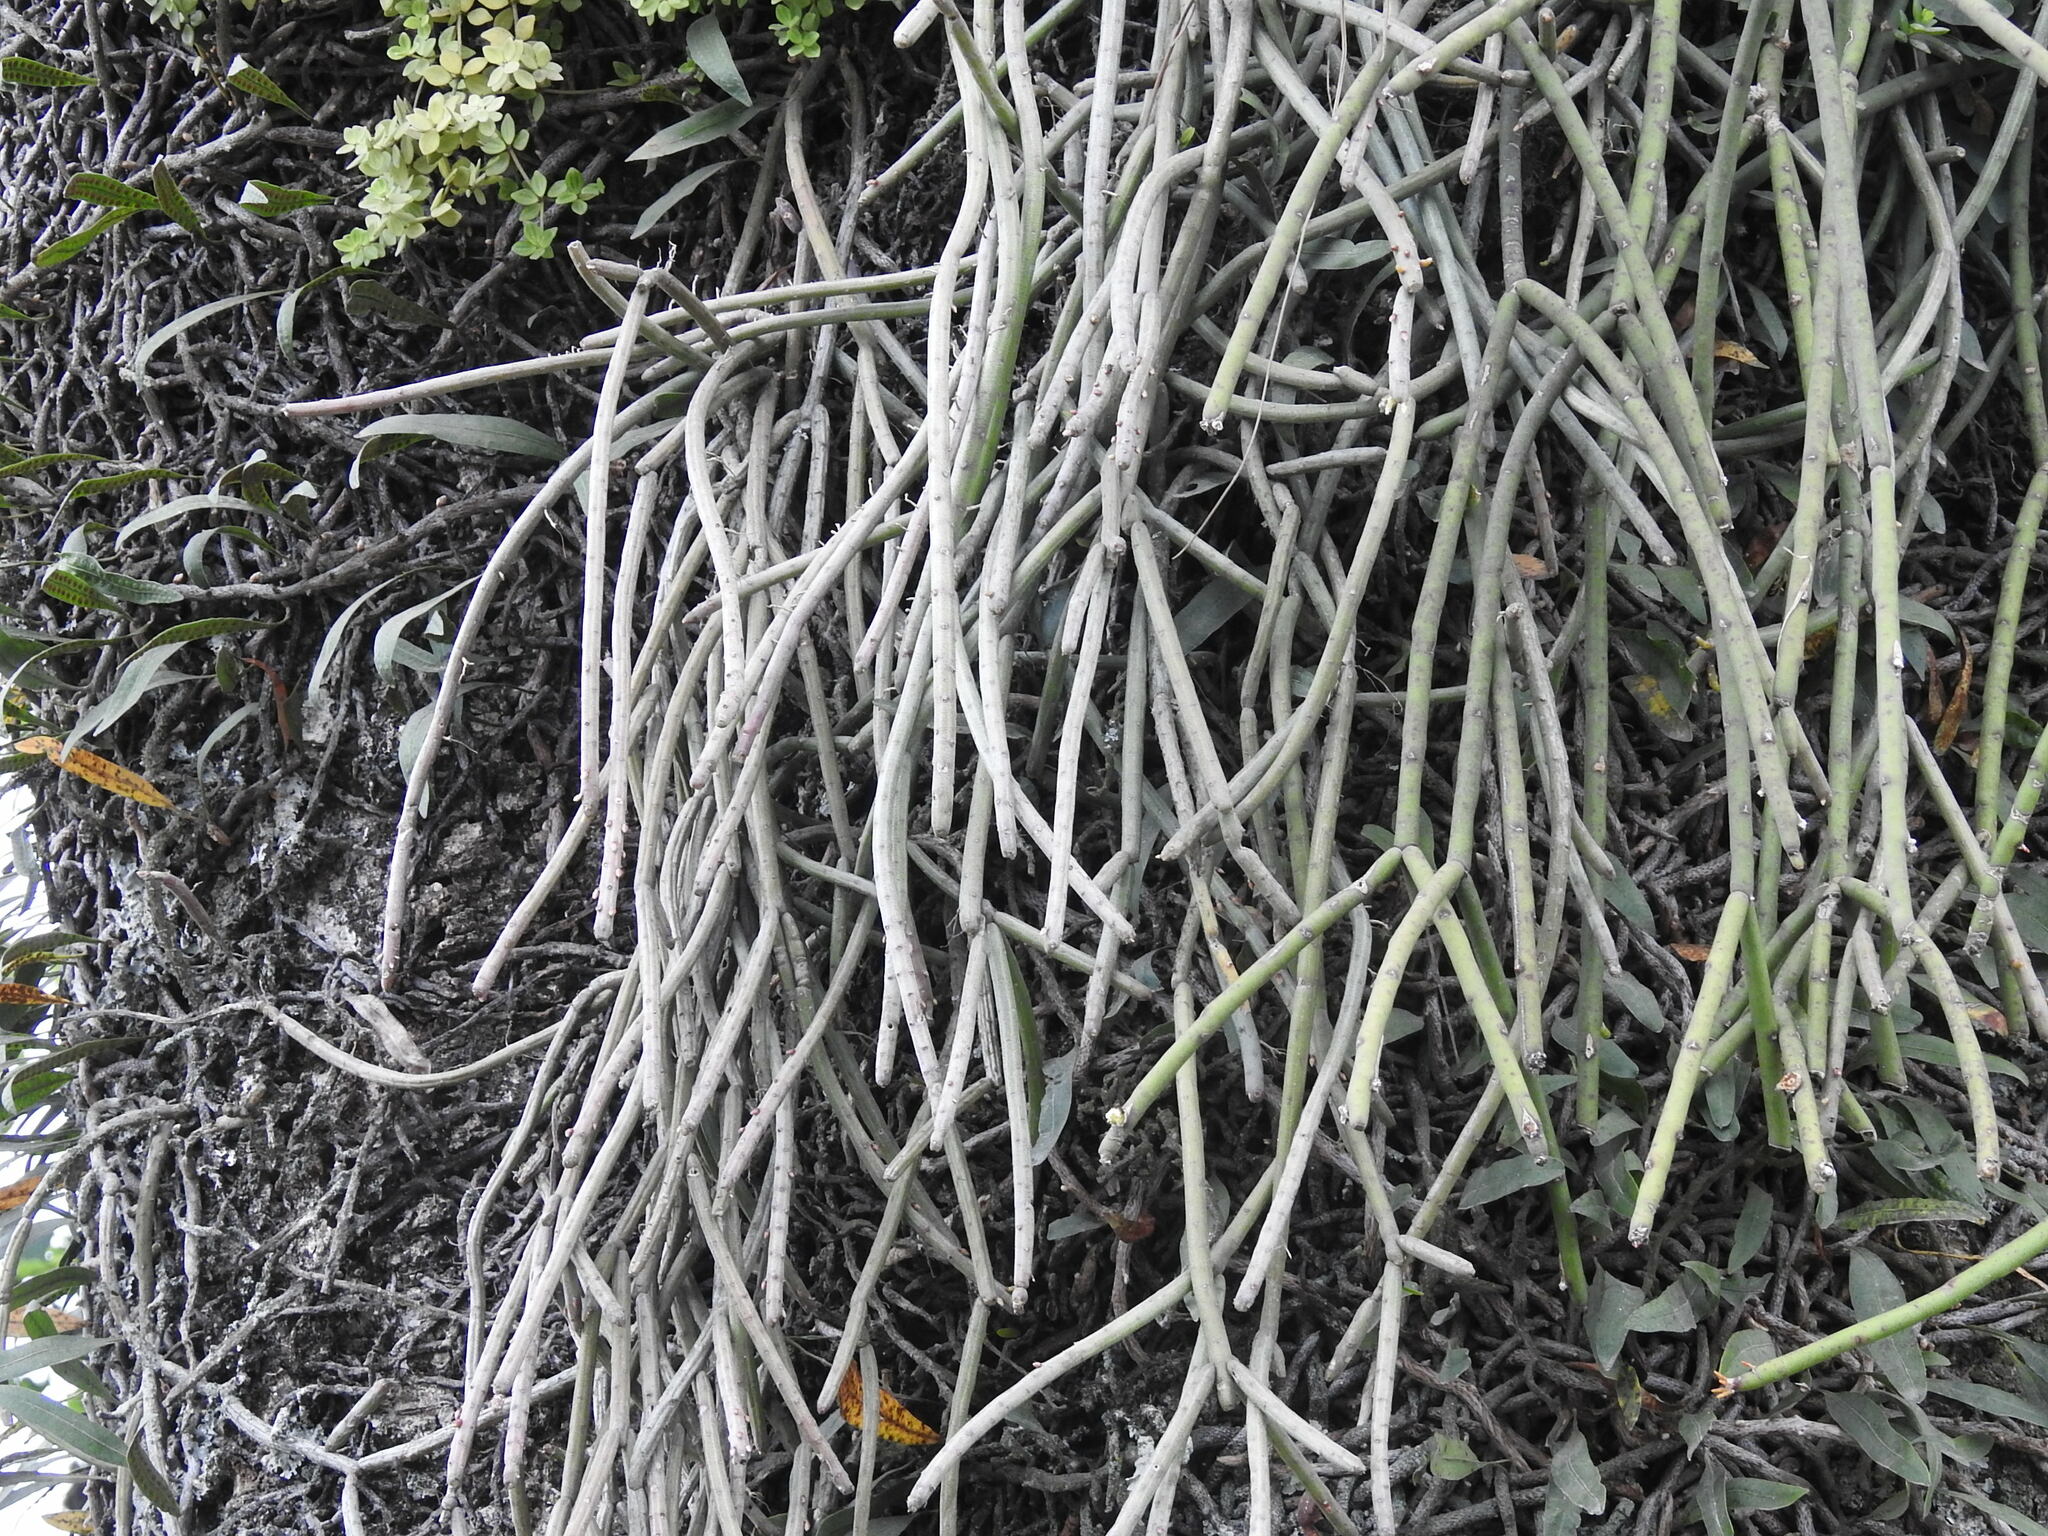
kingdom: Plantae
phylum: Tracheophyta
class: Magnoliopsida
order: Caryophyllales
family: Cactaceae
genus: Rhipsalis
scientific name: Rhipsalis floccosa
